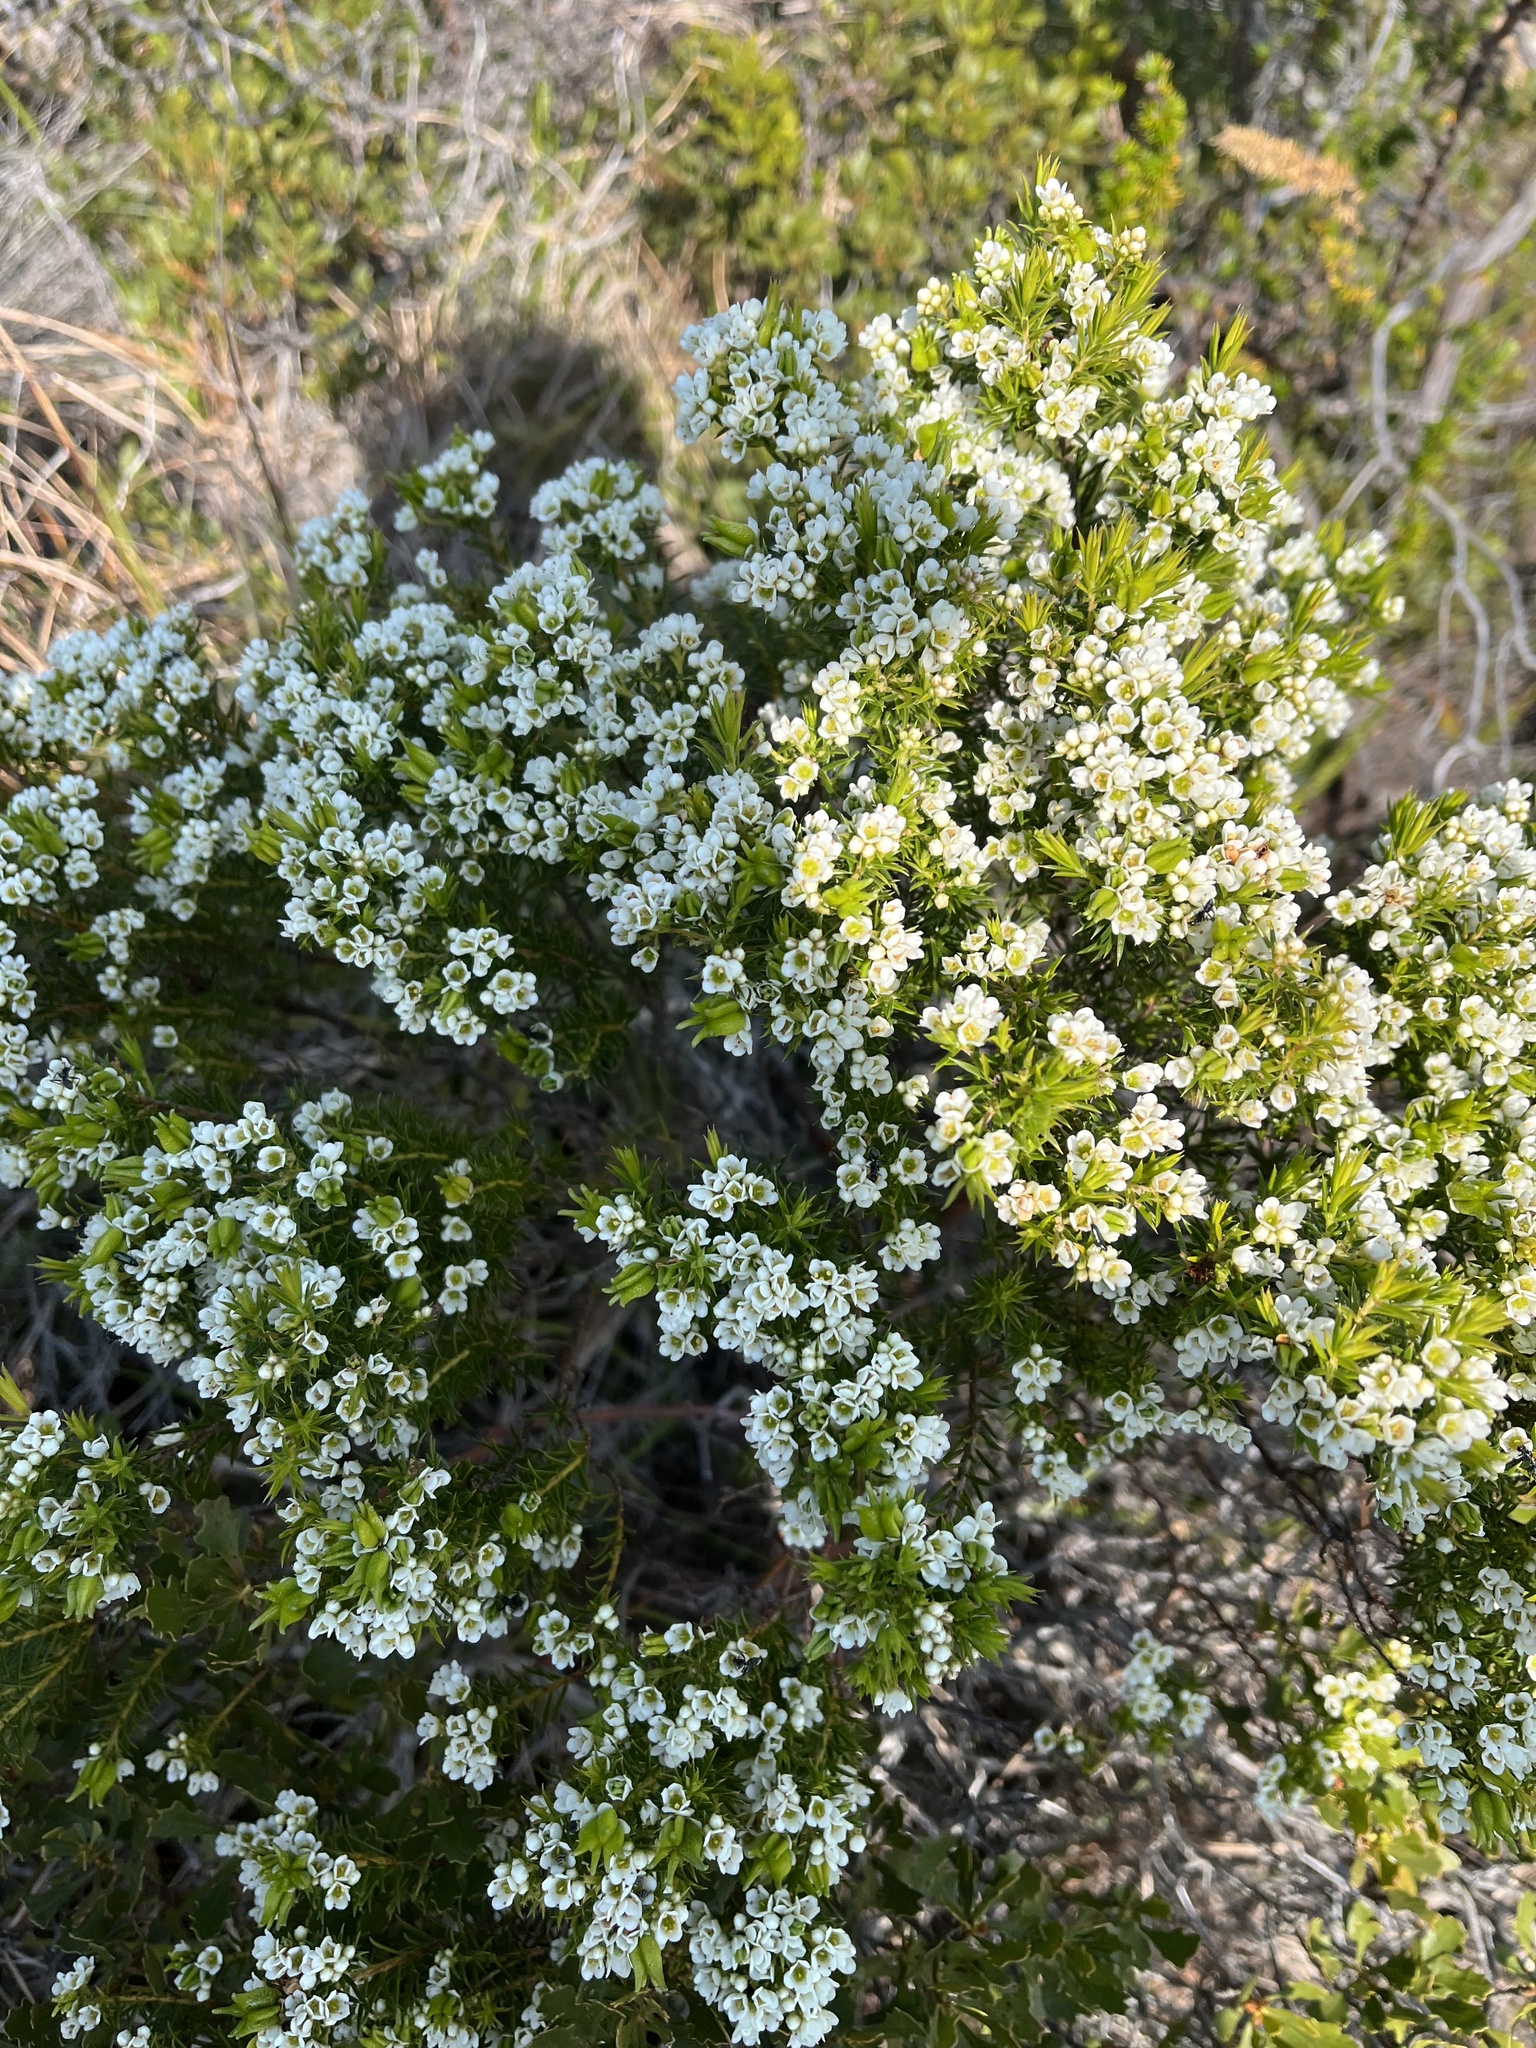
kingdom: Plantae
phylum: Tracheophyta
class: Magnoliopsida
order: Sapindales
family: Rutaceae
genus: Diosma
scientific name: Diosma hirsuta
